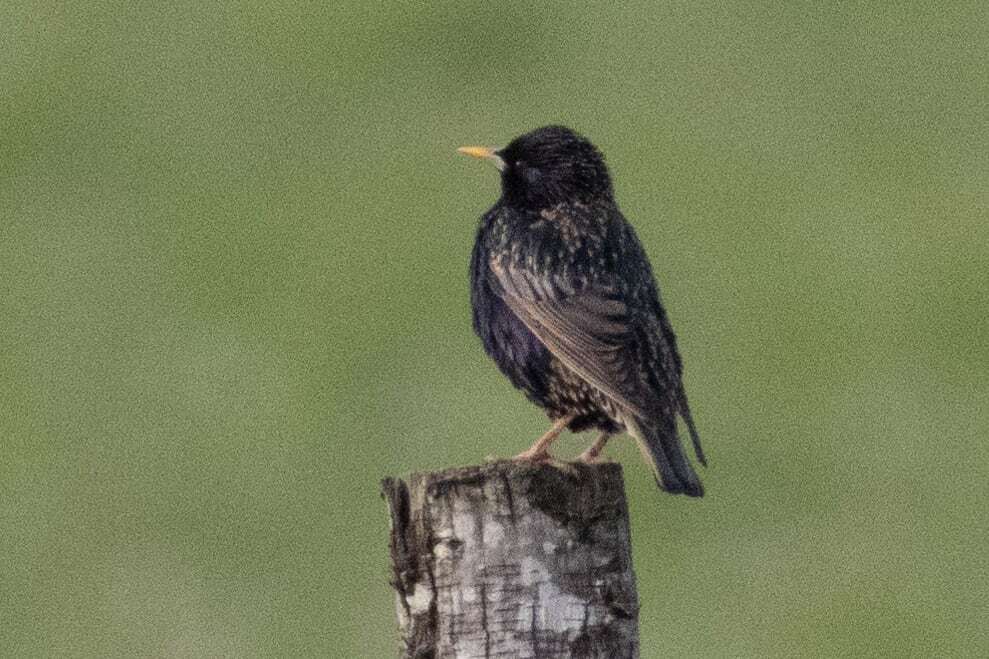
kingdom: Animalia
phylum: Chordata
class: Aves
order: Passeriformes
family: Sturnidae
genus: Sturnus
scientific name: Sturnus vulgaris
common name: Common starling
